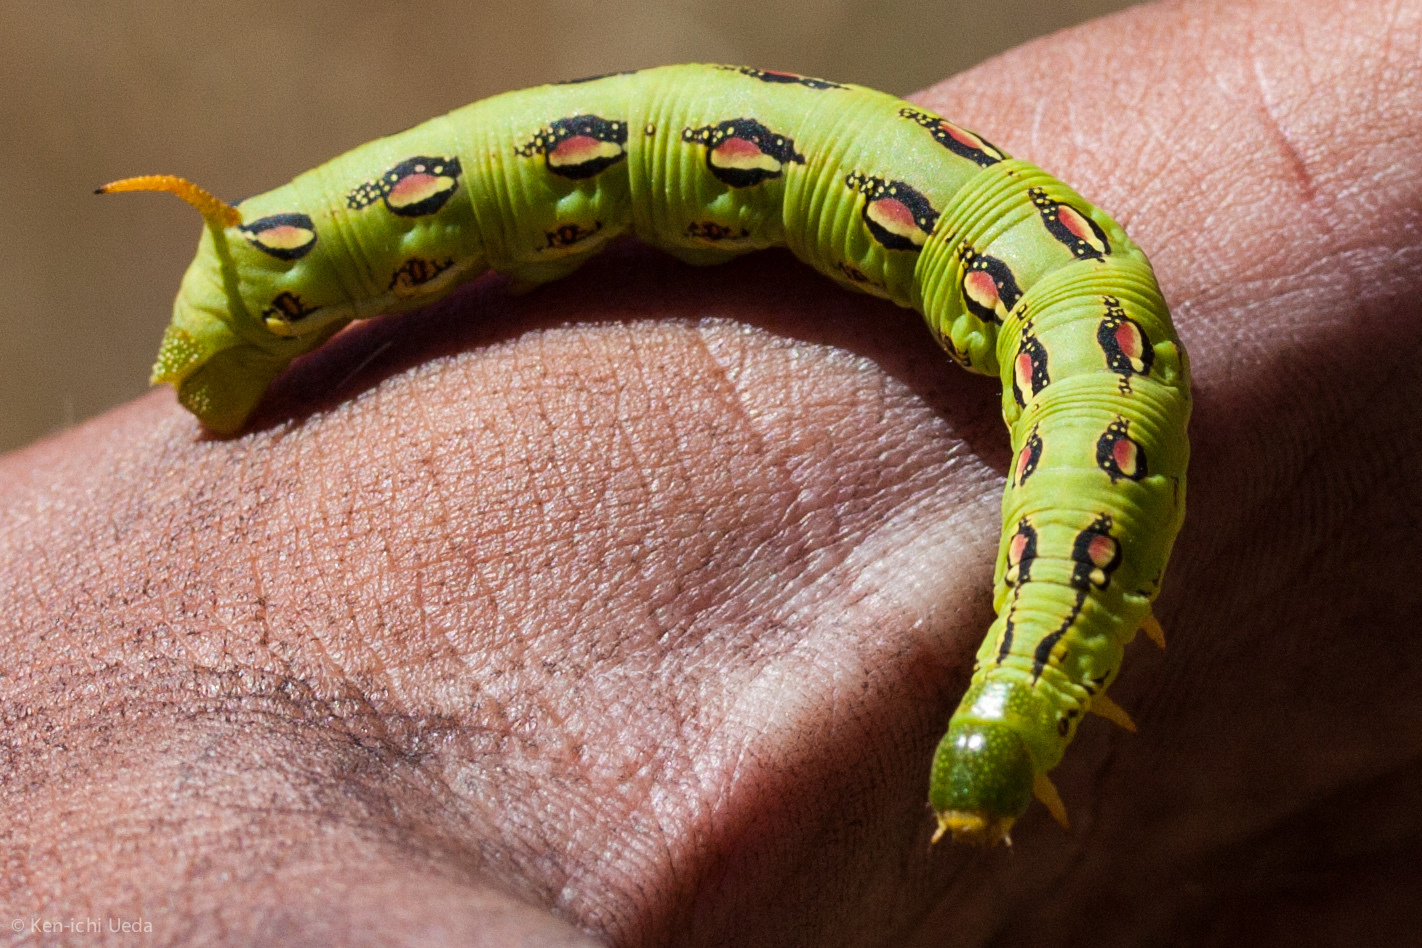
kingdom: Animalia
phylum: Arthropoda
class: Insecta
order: Lepidoptera
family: Sphingidae
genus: Hyles
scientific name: Hyles lineata
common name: White-lined sphinx
